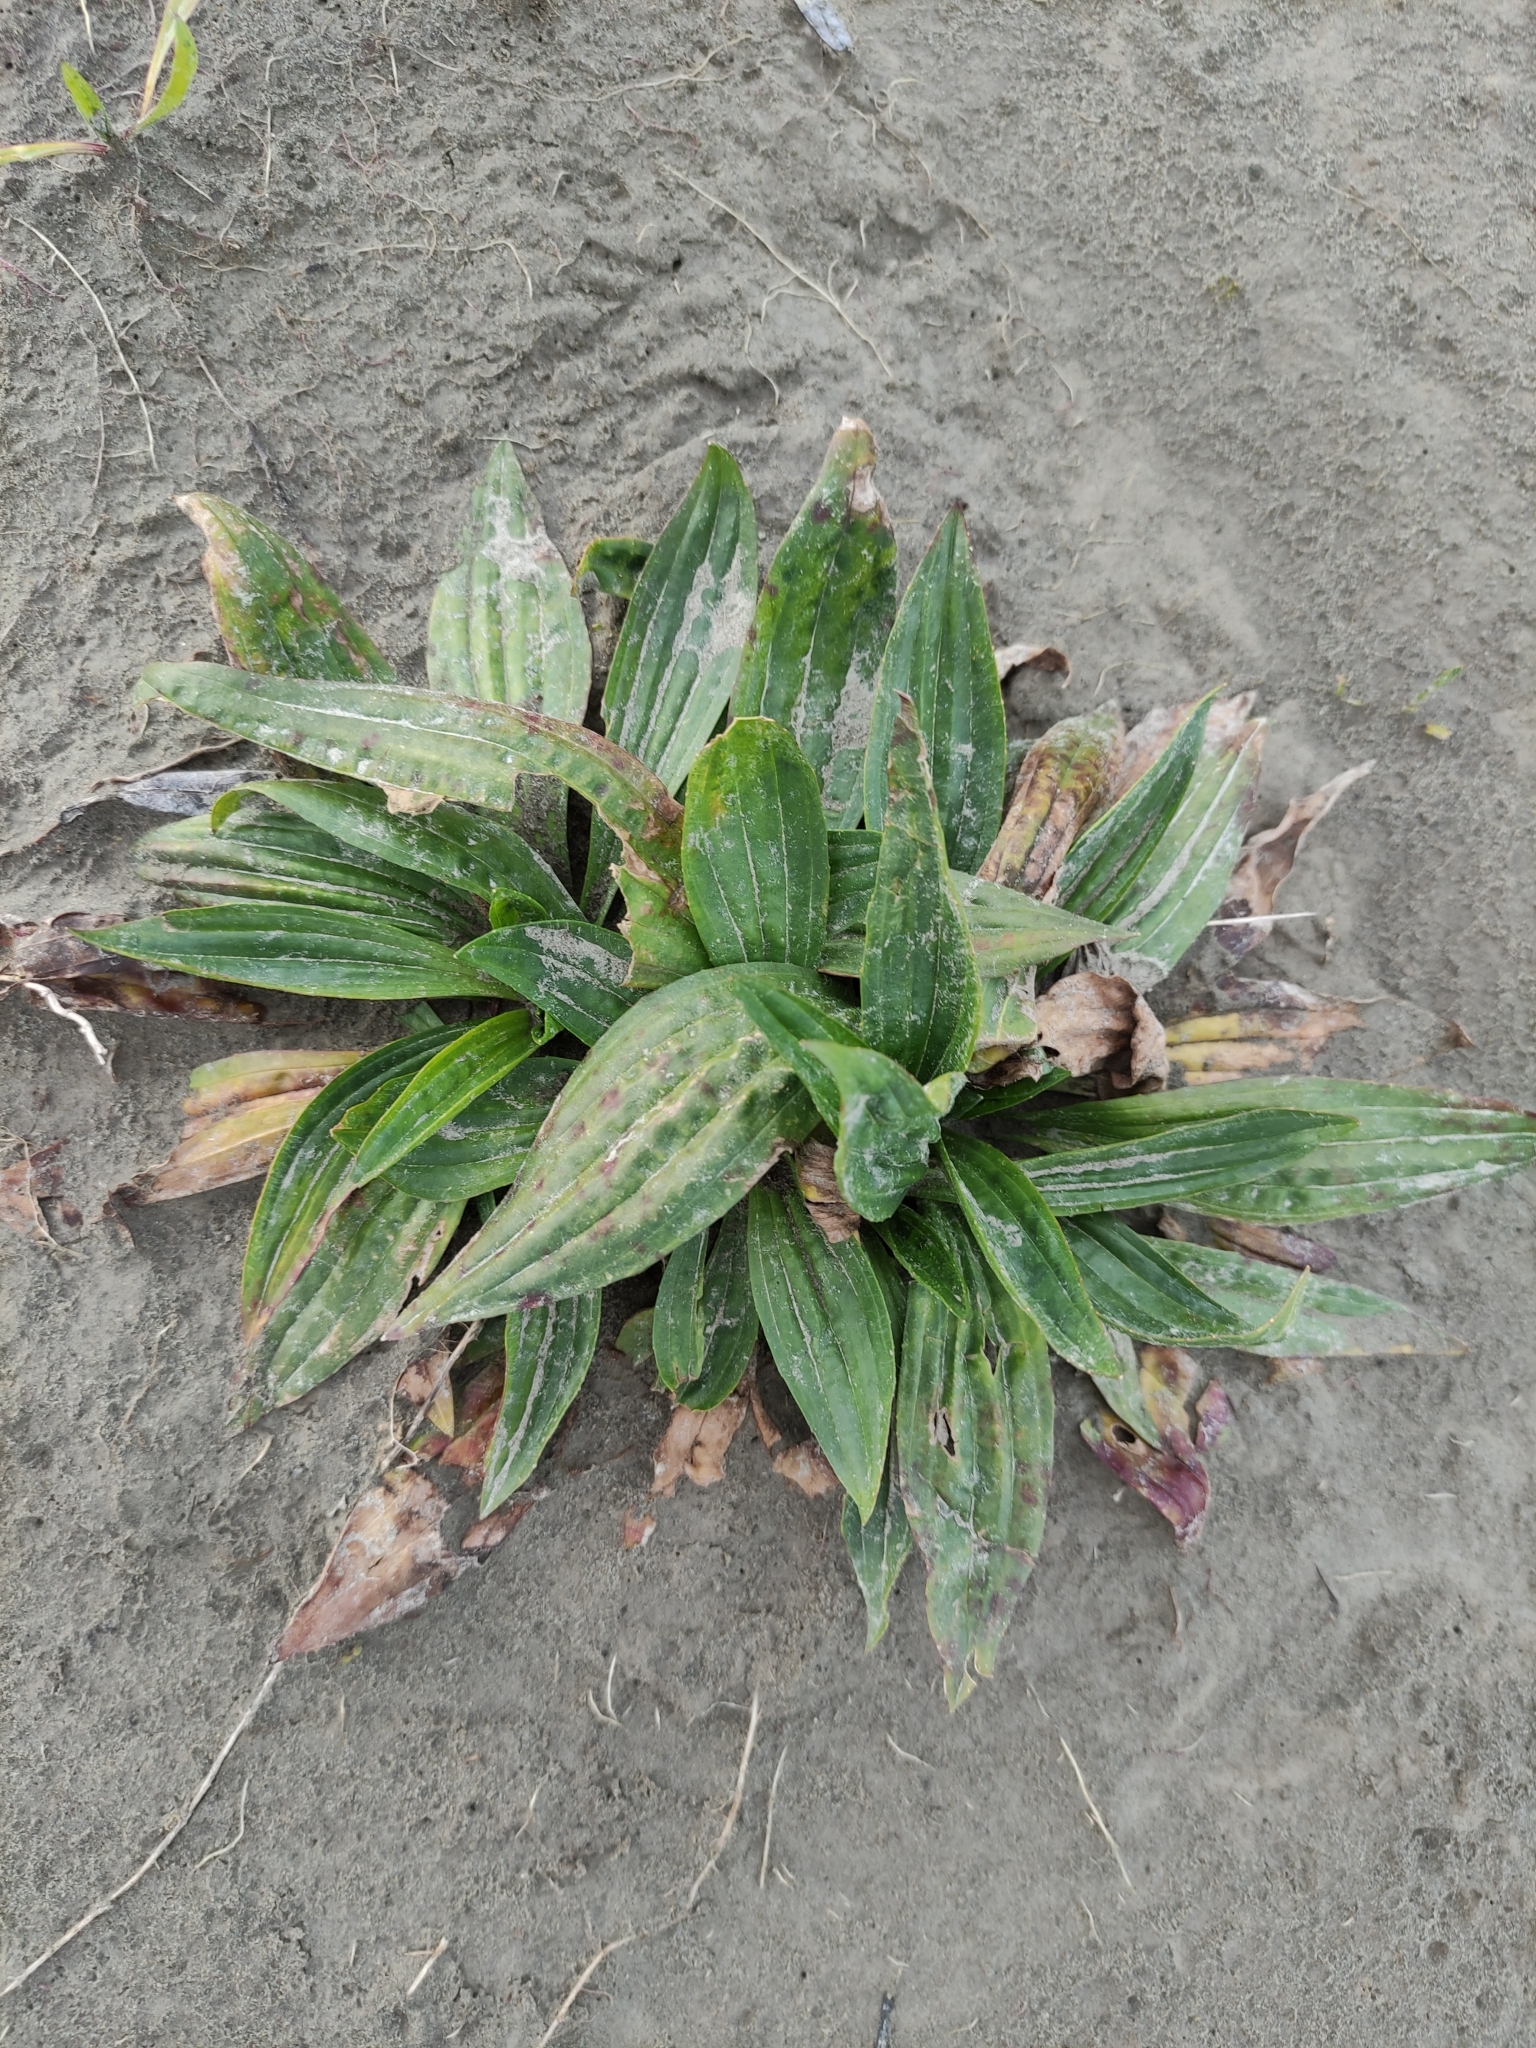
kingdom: Plantae
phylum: Tracheophyta
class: Magnoliopsida
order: Lamiales
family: Plantaginaceae
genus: Plantago
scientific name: Plantago lanceolata
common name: Ribwort plantain
